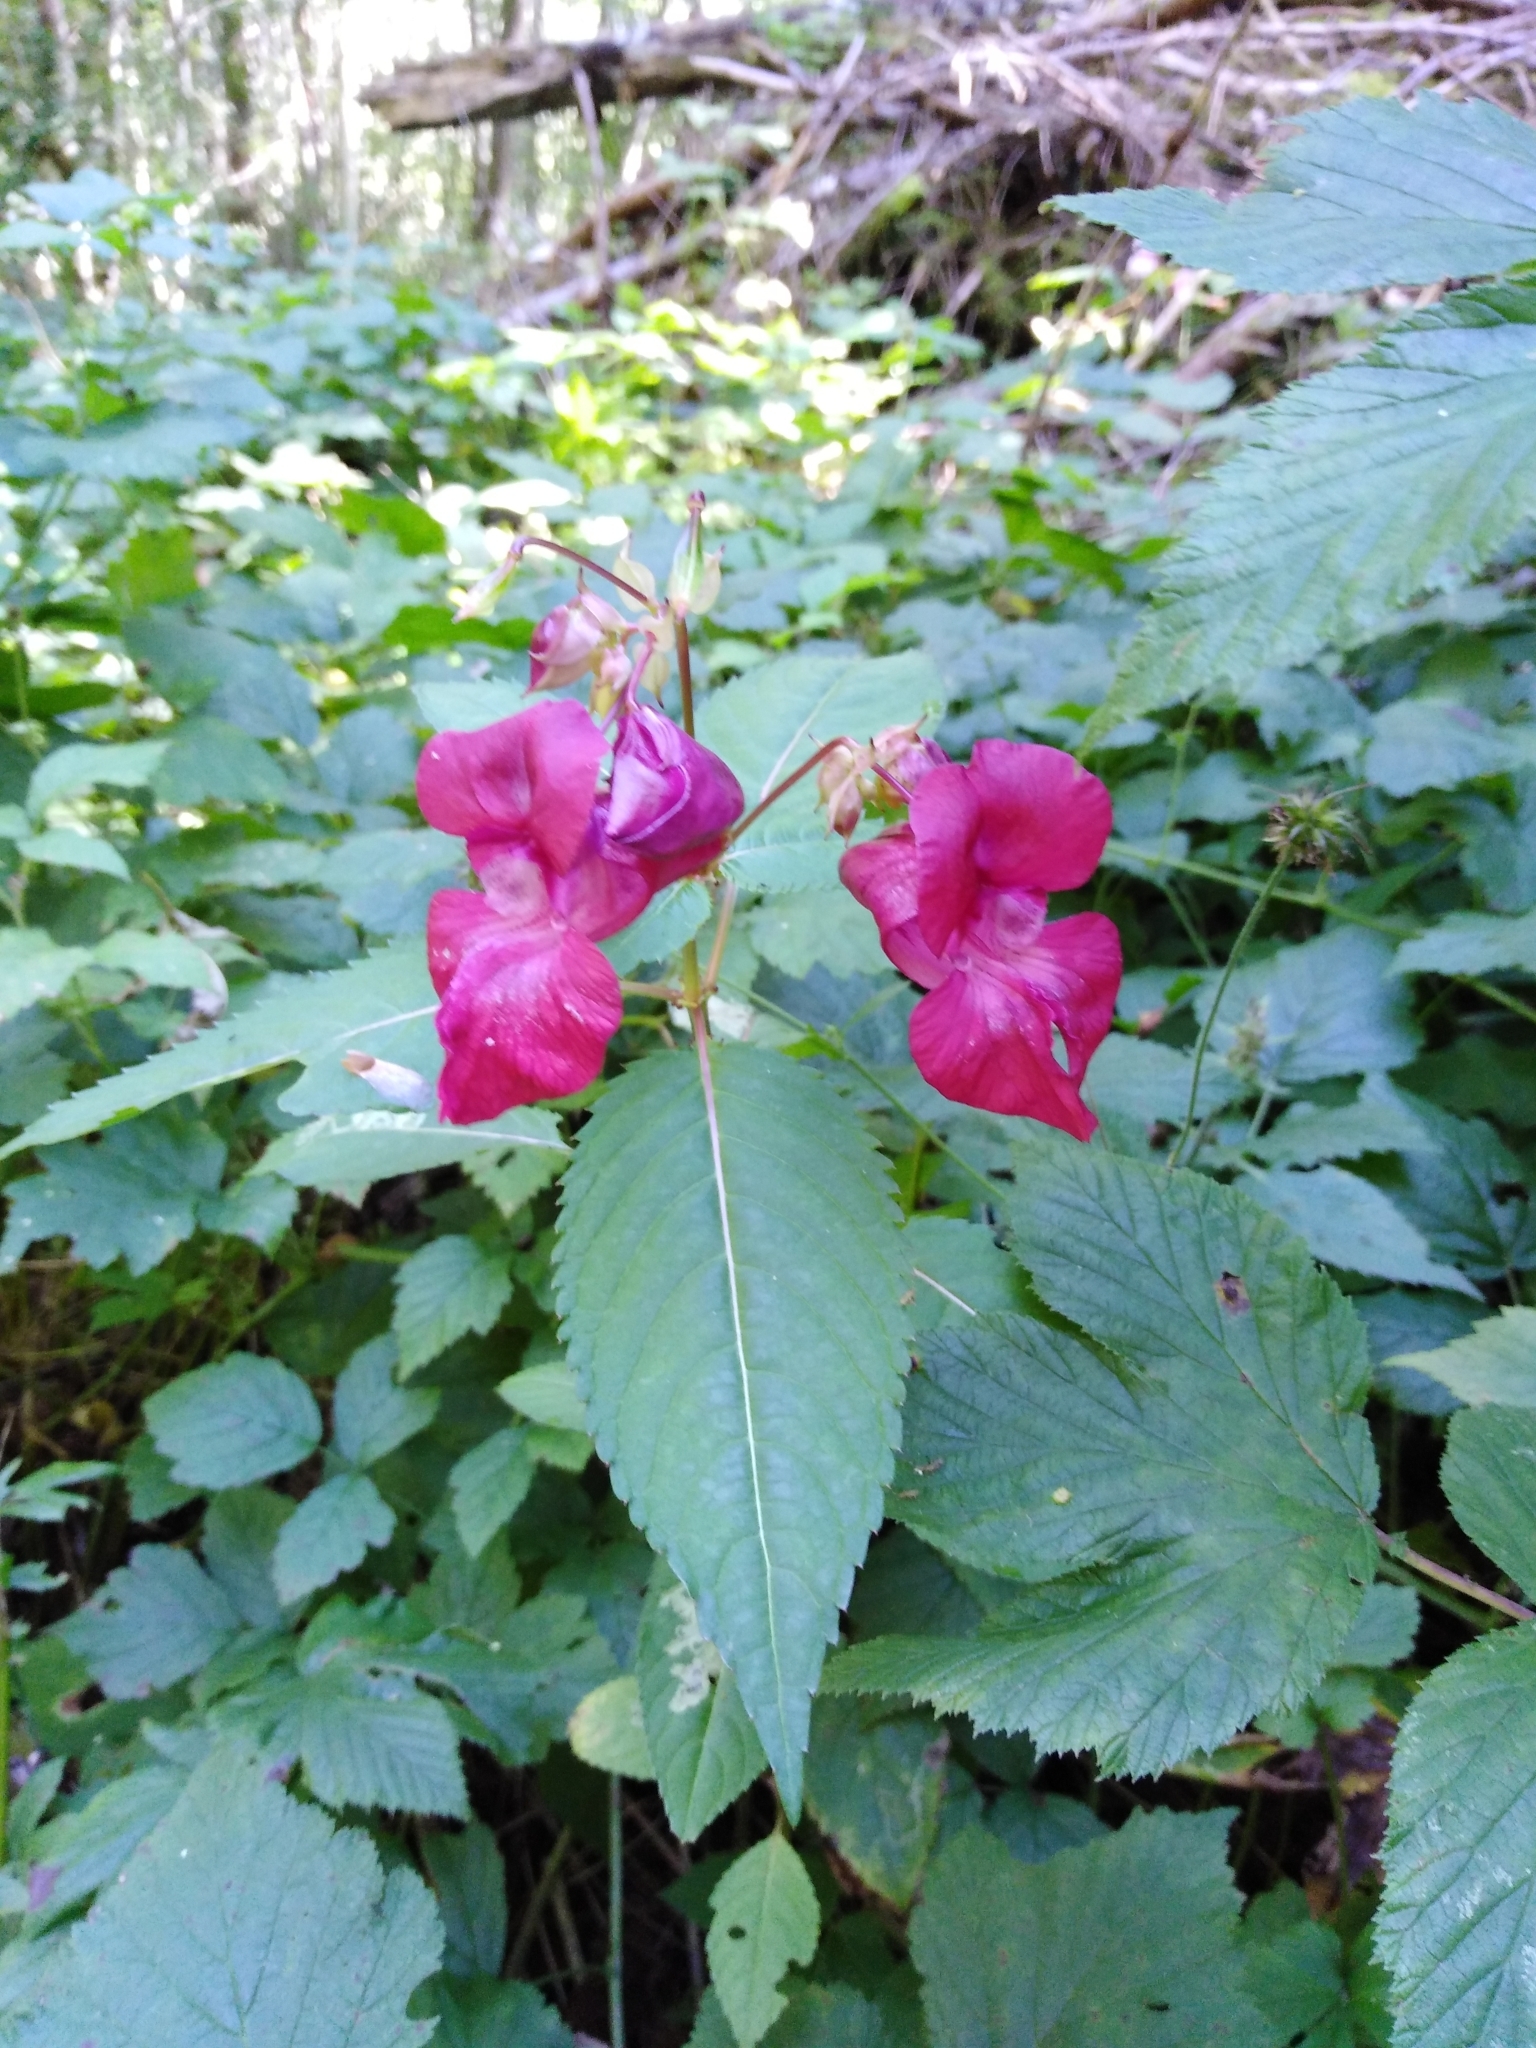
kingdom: Plantae
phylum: Tracheophyta
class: Magnoliopsida
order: Ericales
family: Balsaminaceae
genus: Impatiens
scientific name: Impatiens glandulifera
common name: Himalayan balsam
